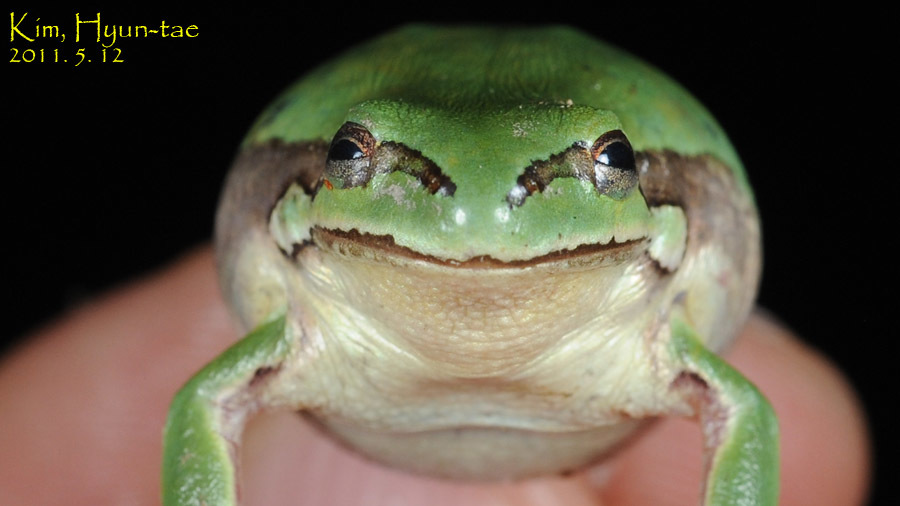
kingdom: Animalia
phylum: Chordata
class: Amphibia
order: Anura
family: Hylidae
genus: Dryophytes
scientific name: Dryophytes immaculatus
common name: North china treefrog
